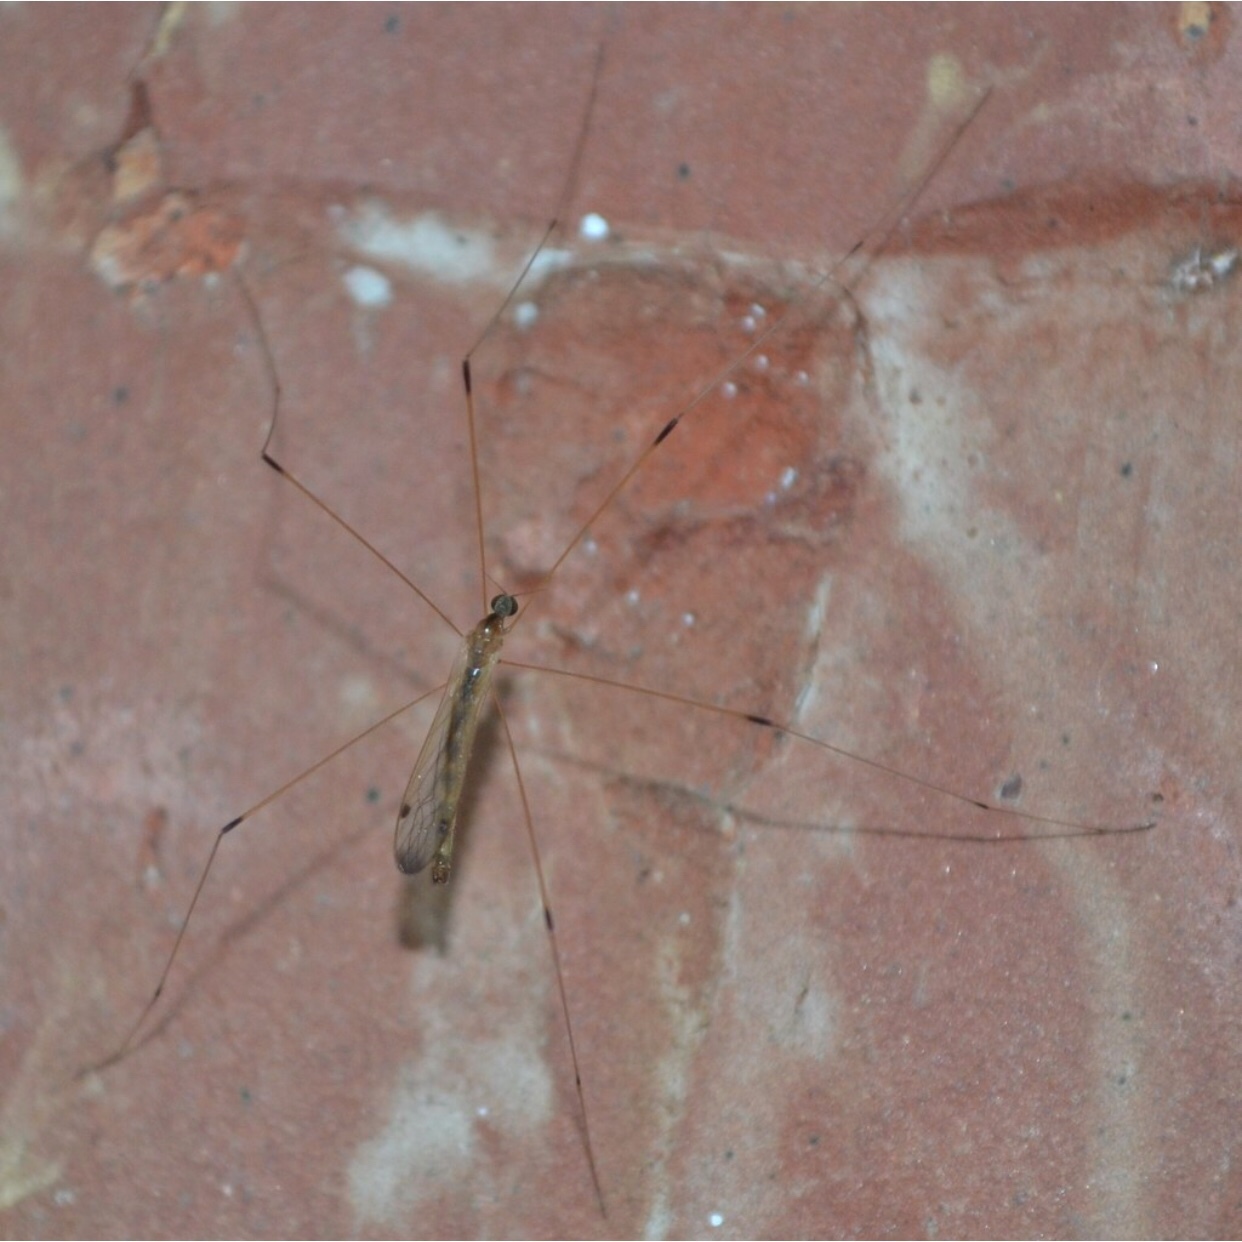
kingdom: Animalia
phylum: Arthropoda
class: Insecta
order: Diptera
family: Limoniidae
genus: Helius
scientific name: Helius flavipes
